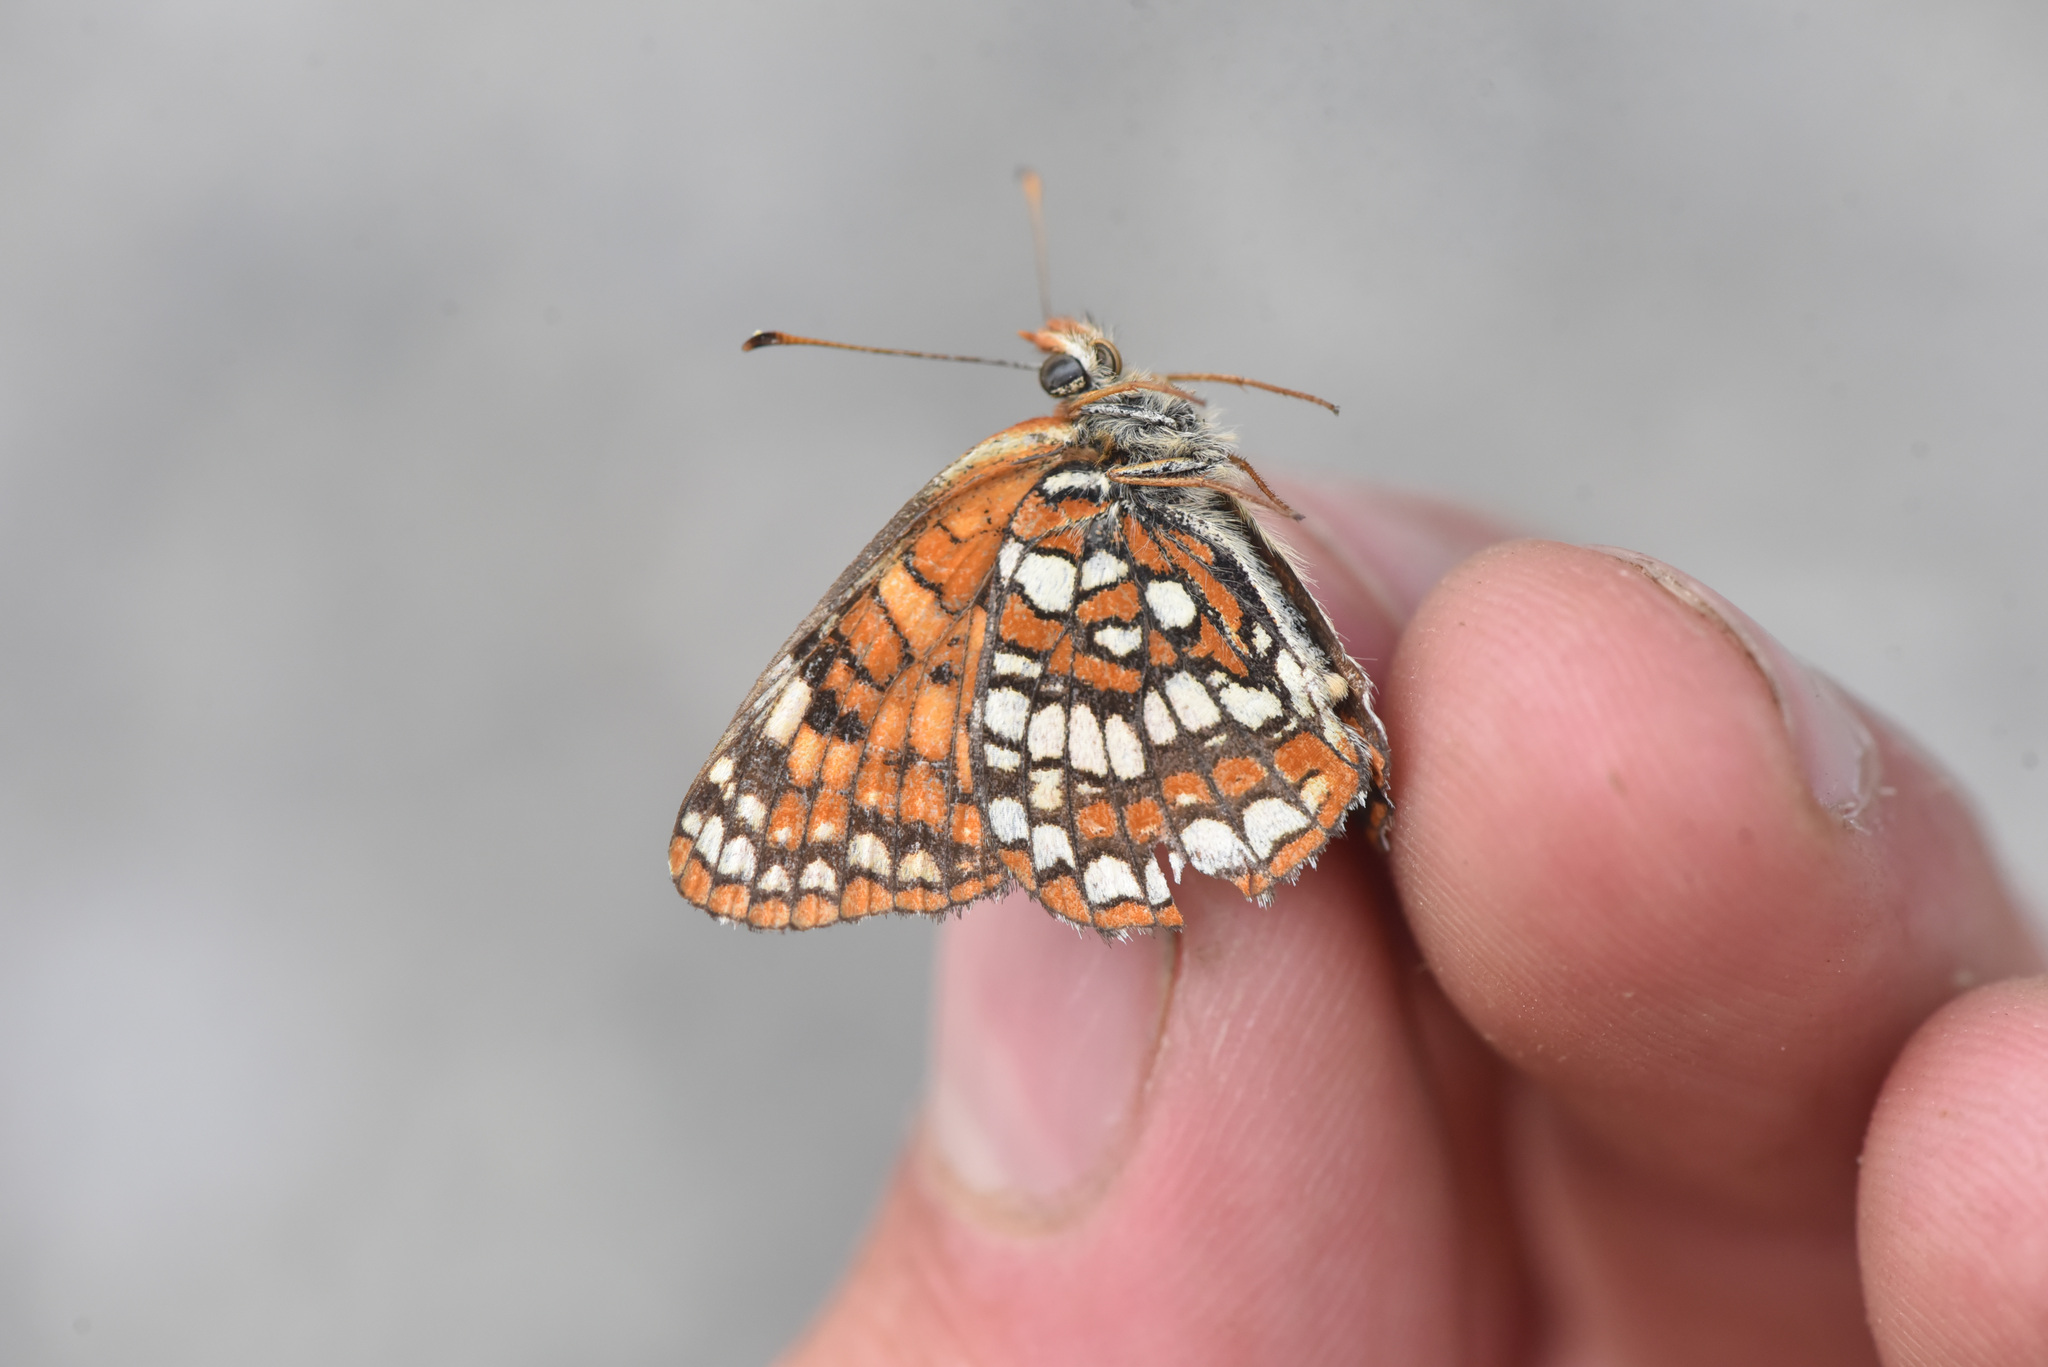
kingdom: Animalia
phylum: Arthropoda
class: Insecta
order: Lepidoptera
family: Nymphalidae
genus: Chlosyne
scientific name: Chlosyne palla
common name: Northern checkerspot
